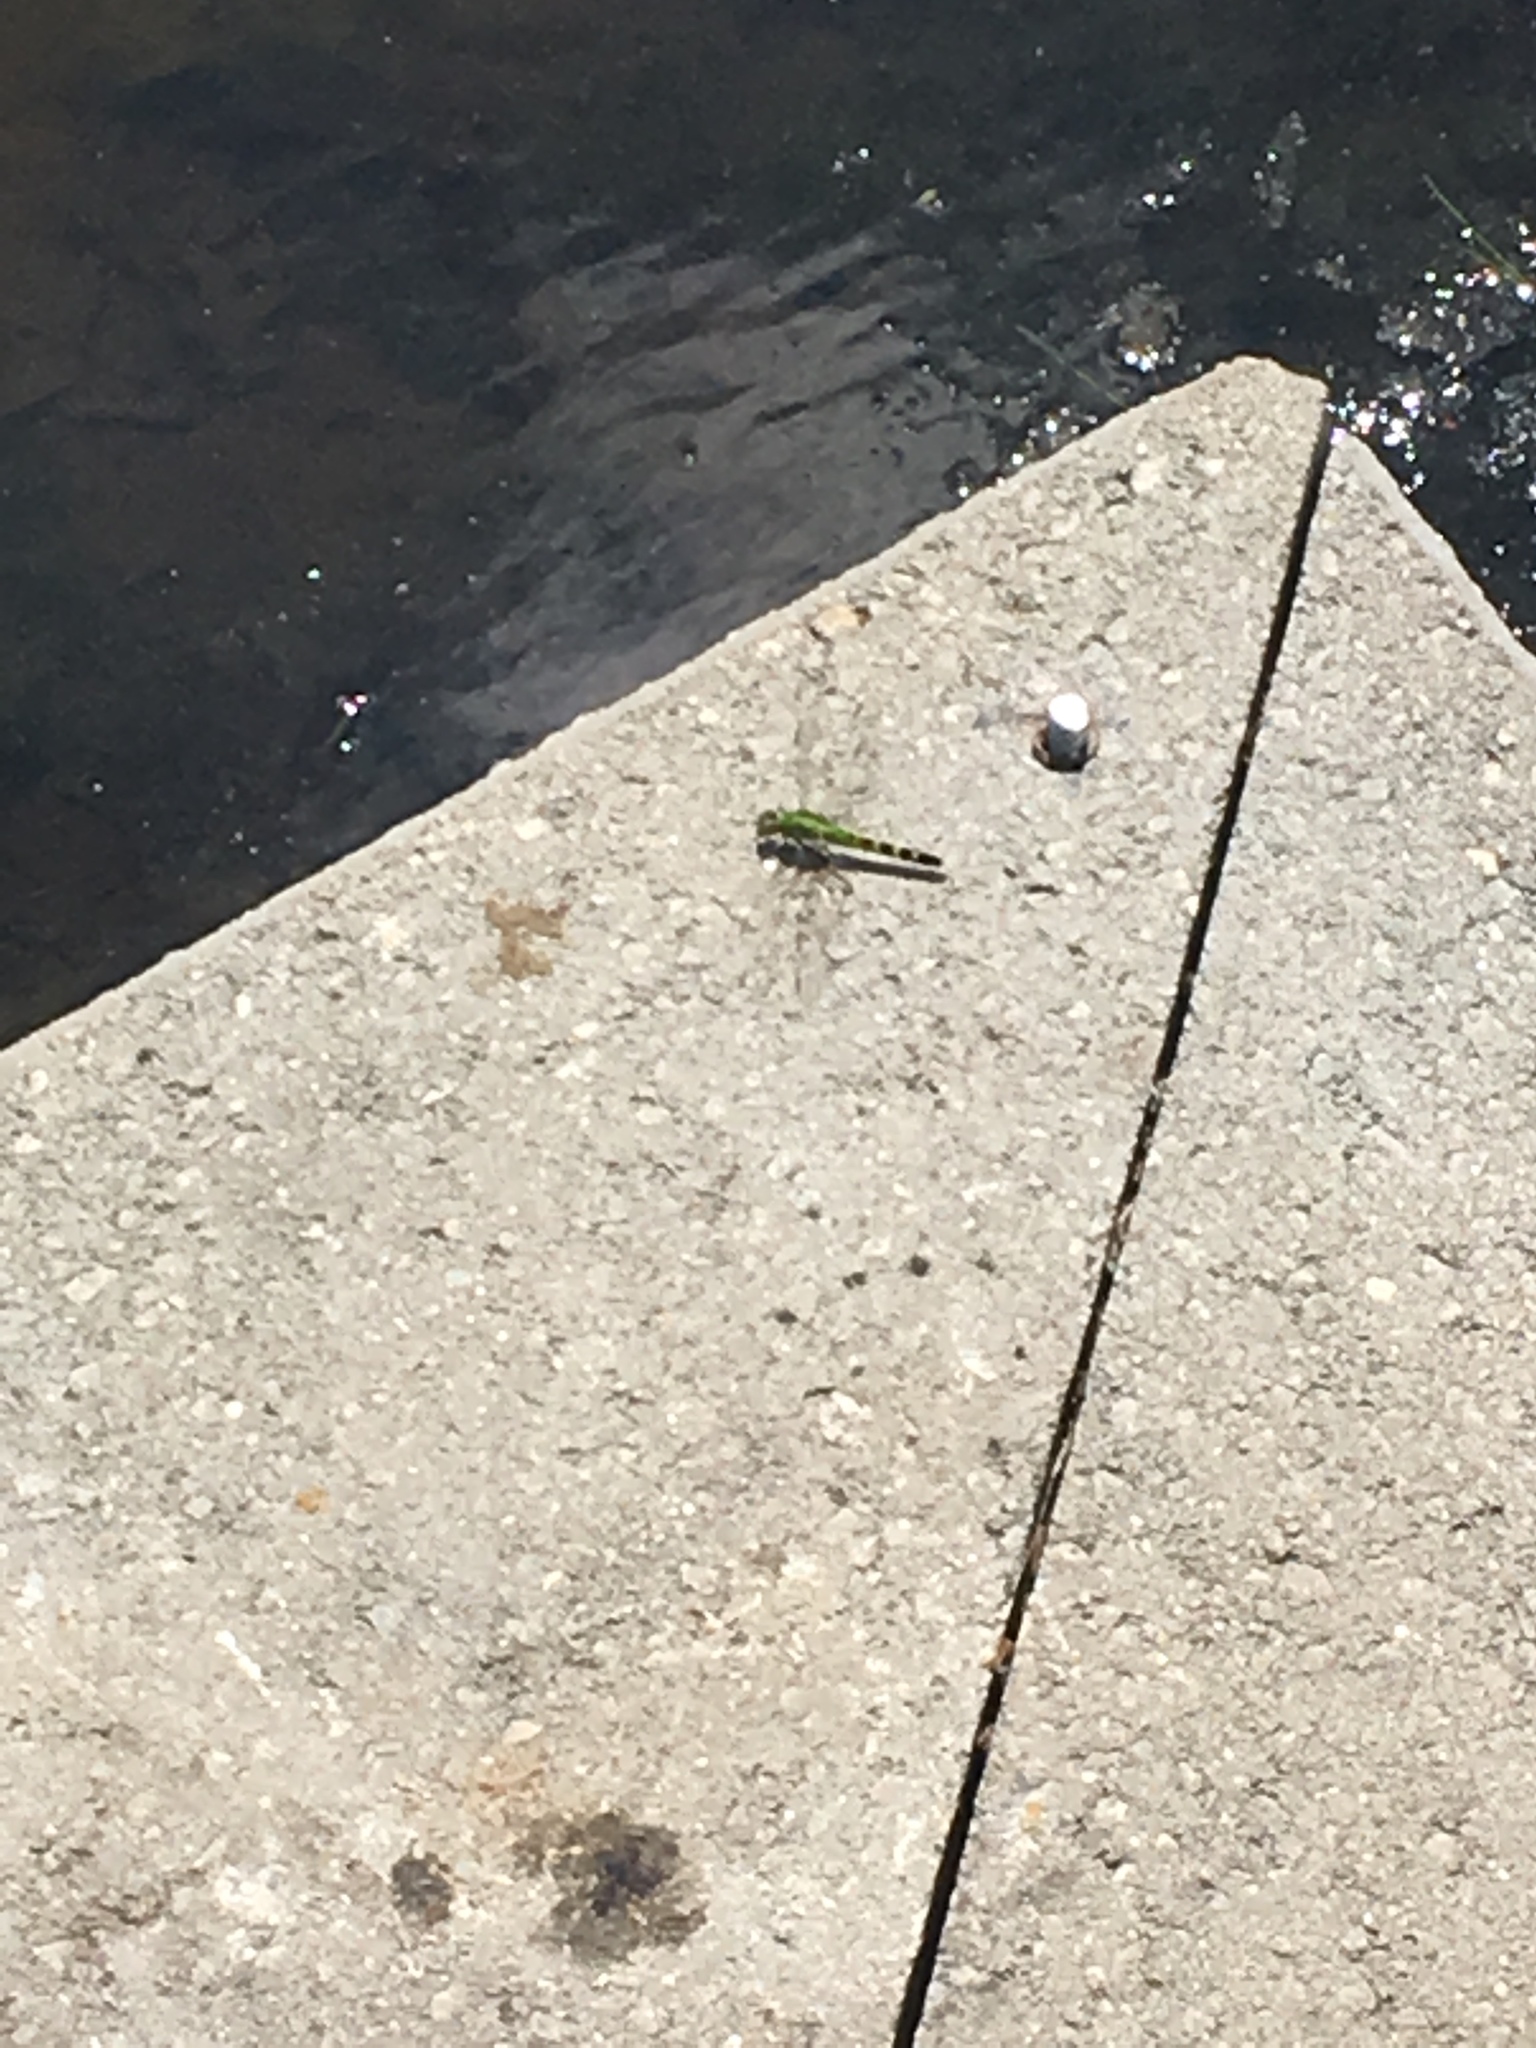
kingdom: Animalia
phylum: Arthropoda
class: Insecta
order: Odonata
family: Libellulidae
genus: Erythemis
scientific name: Erythemis simplicicollis
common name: Eastern pondhawk
